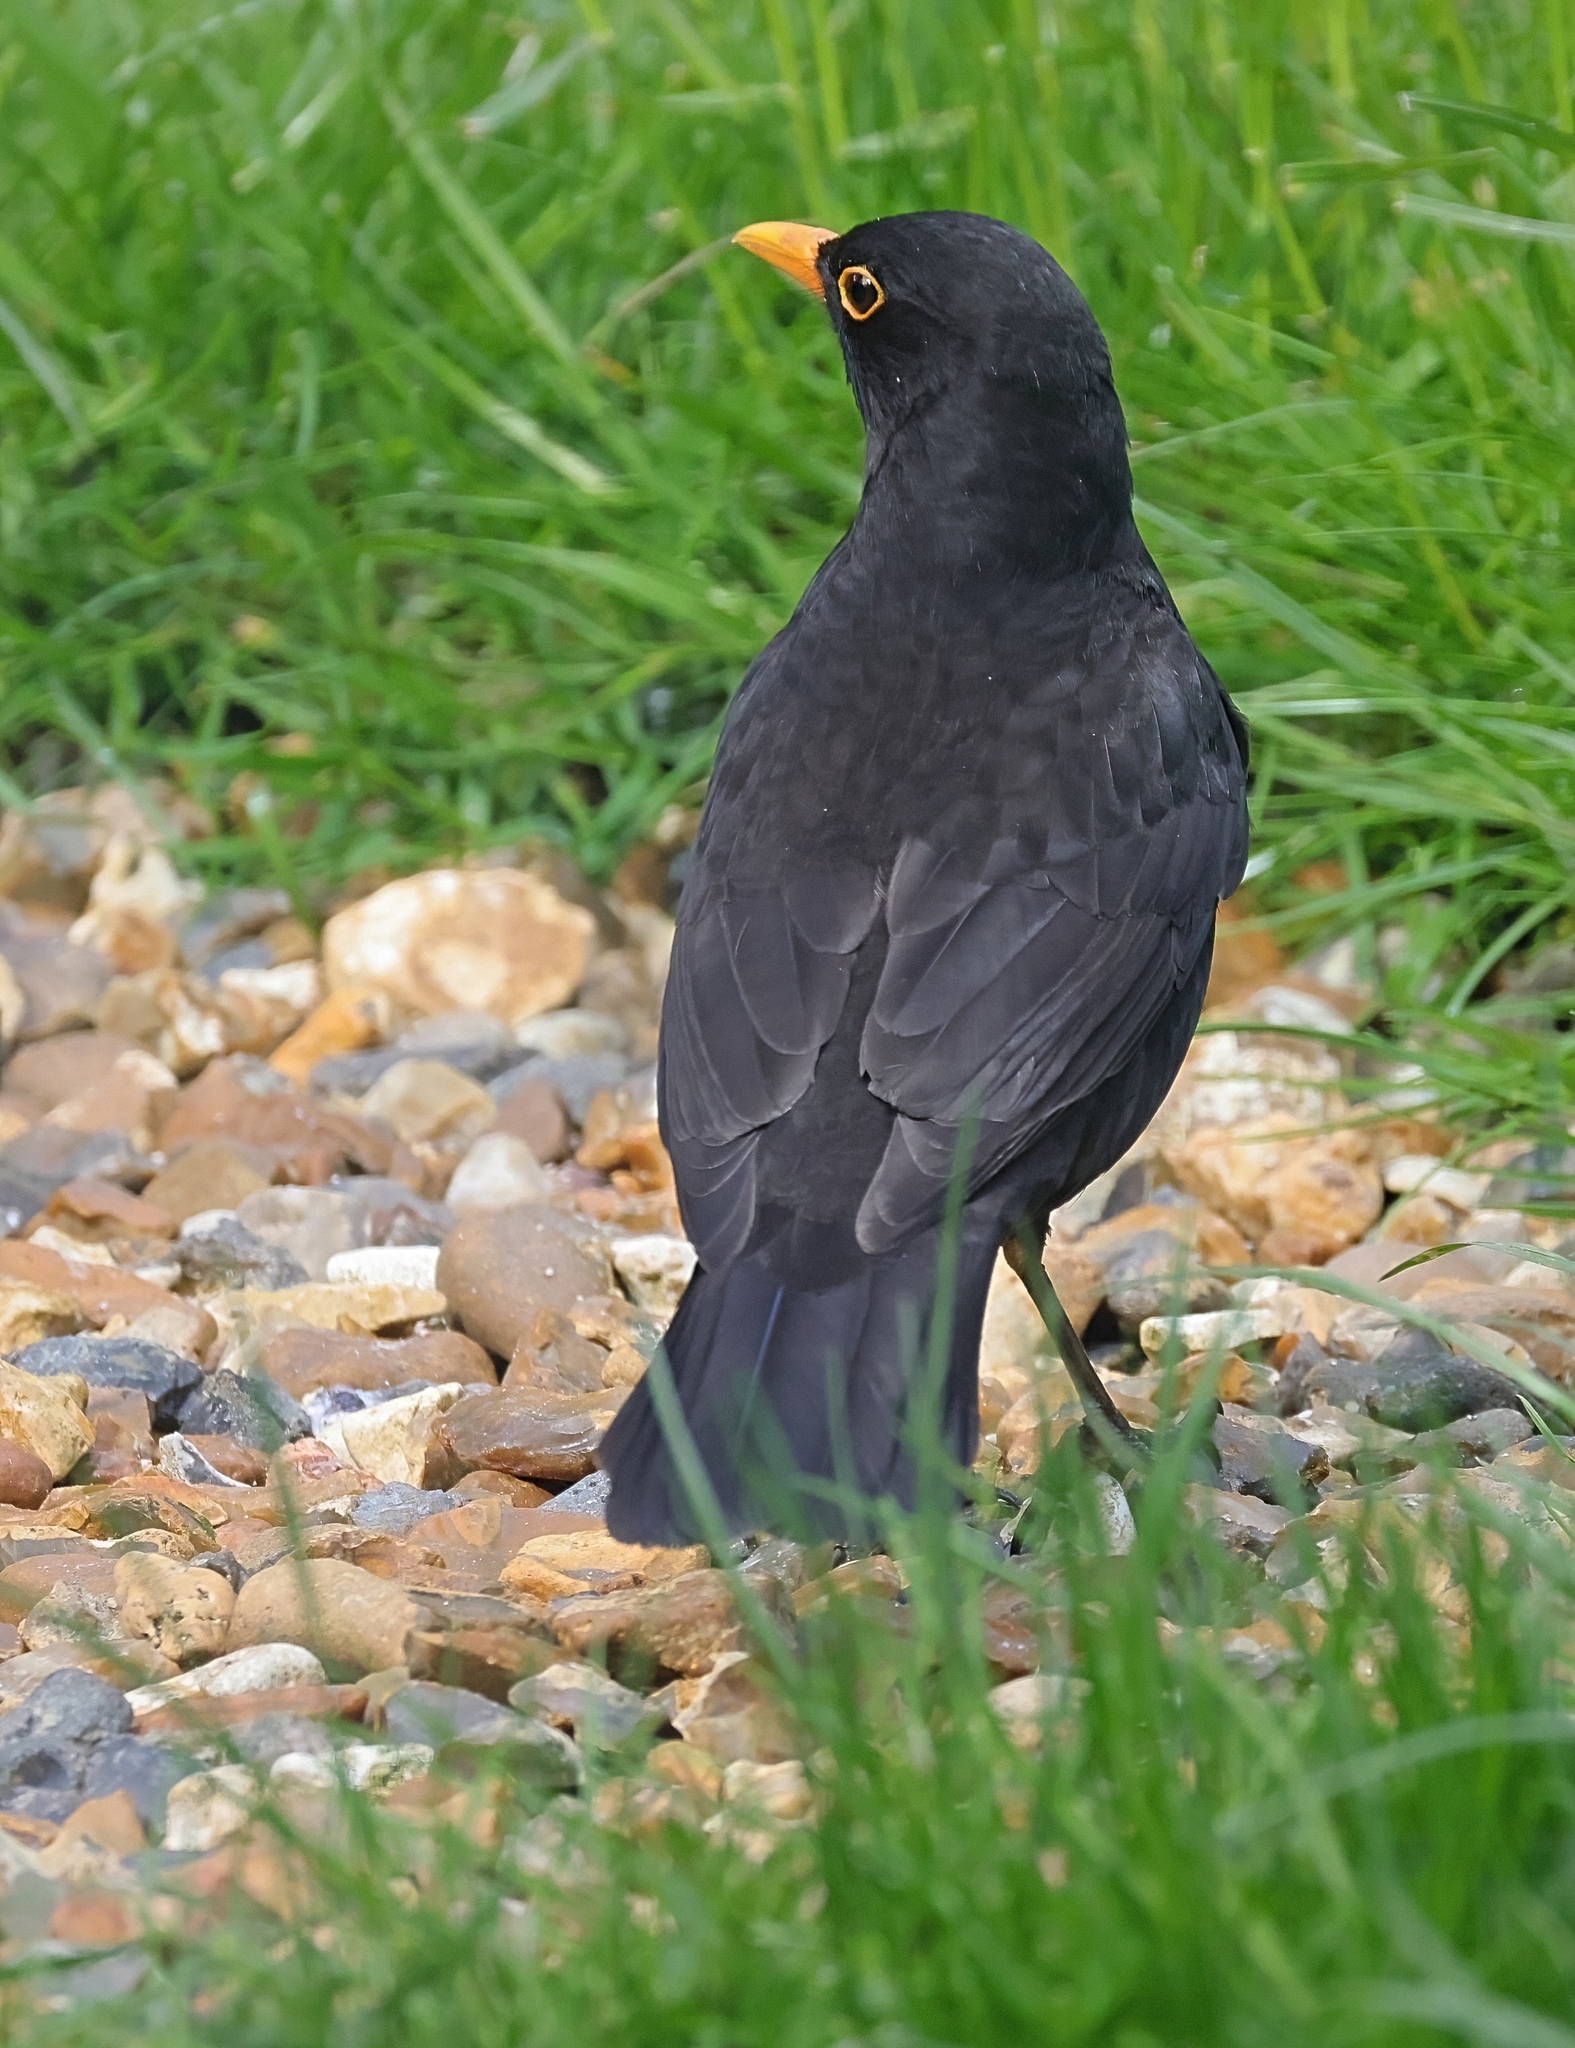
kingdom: Animalia
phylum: Chordata
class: Aves
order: Passeriformes
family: Turdidae
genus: Turdus
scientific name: Turdus merula
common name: Common blackbird
